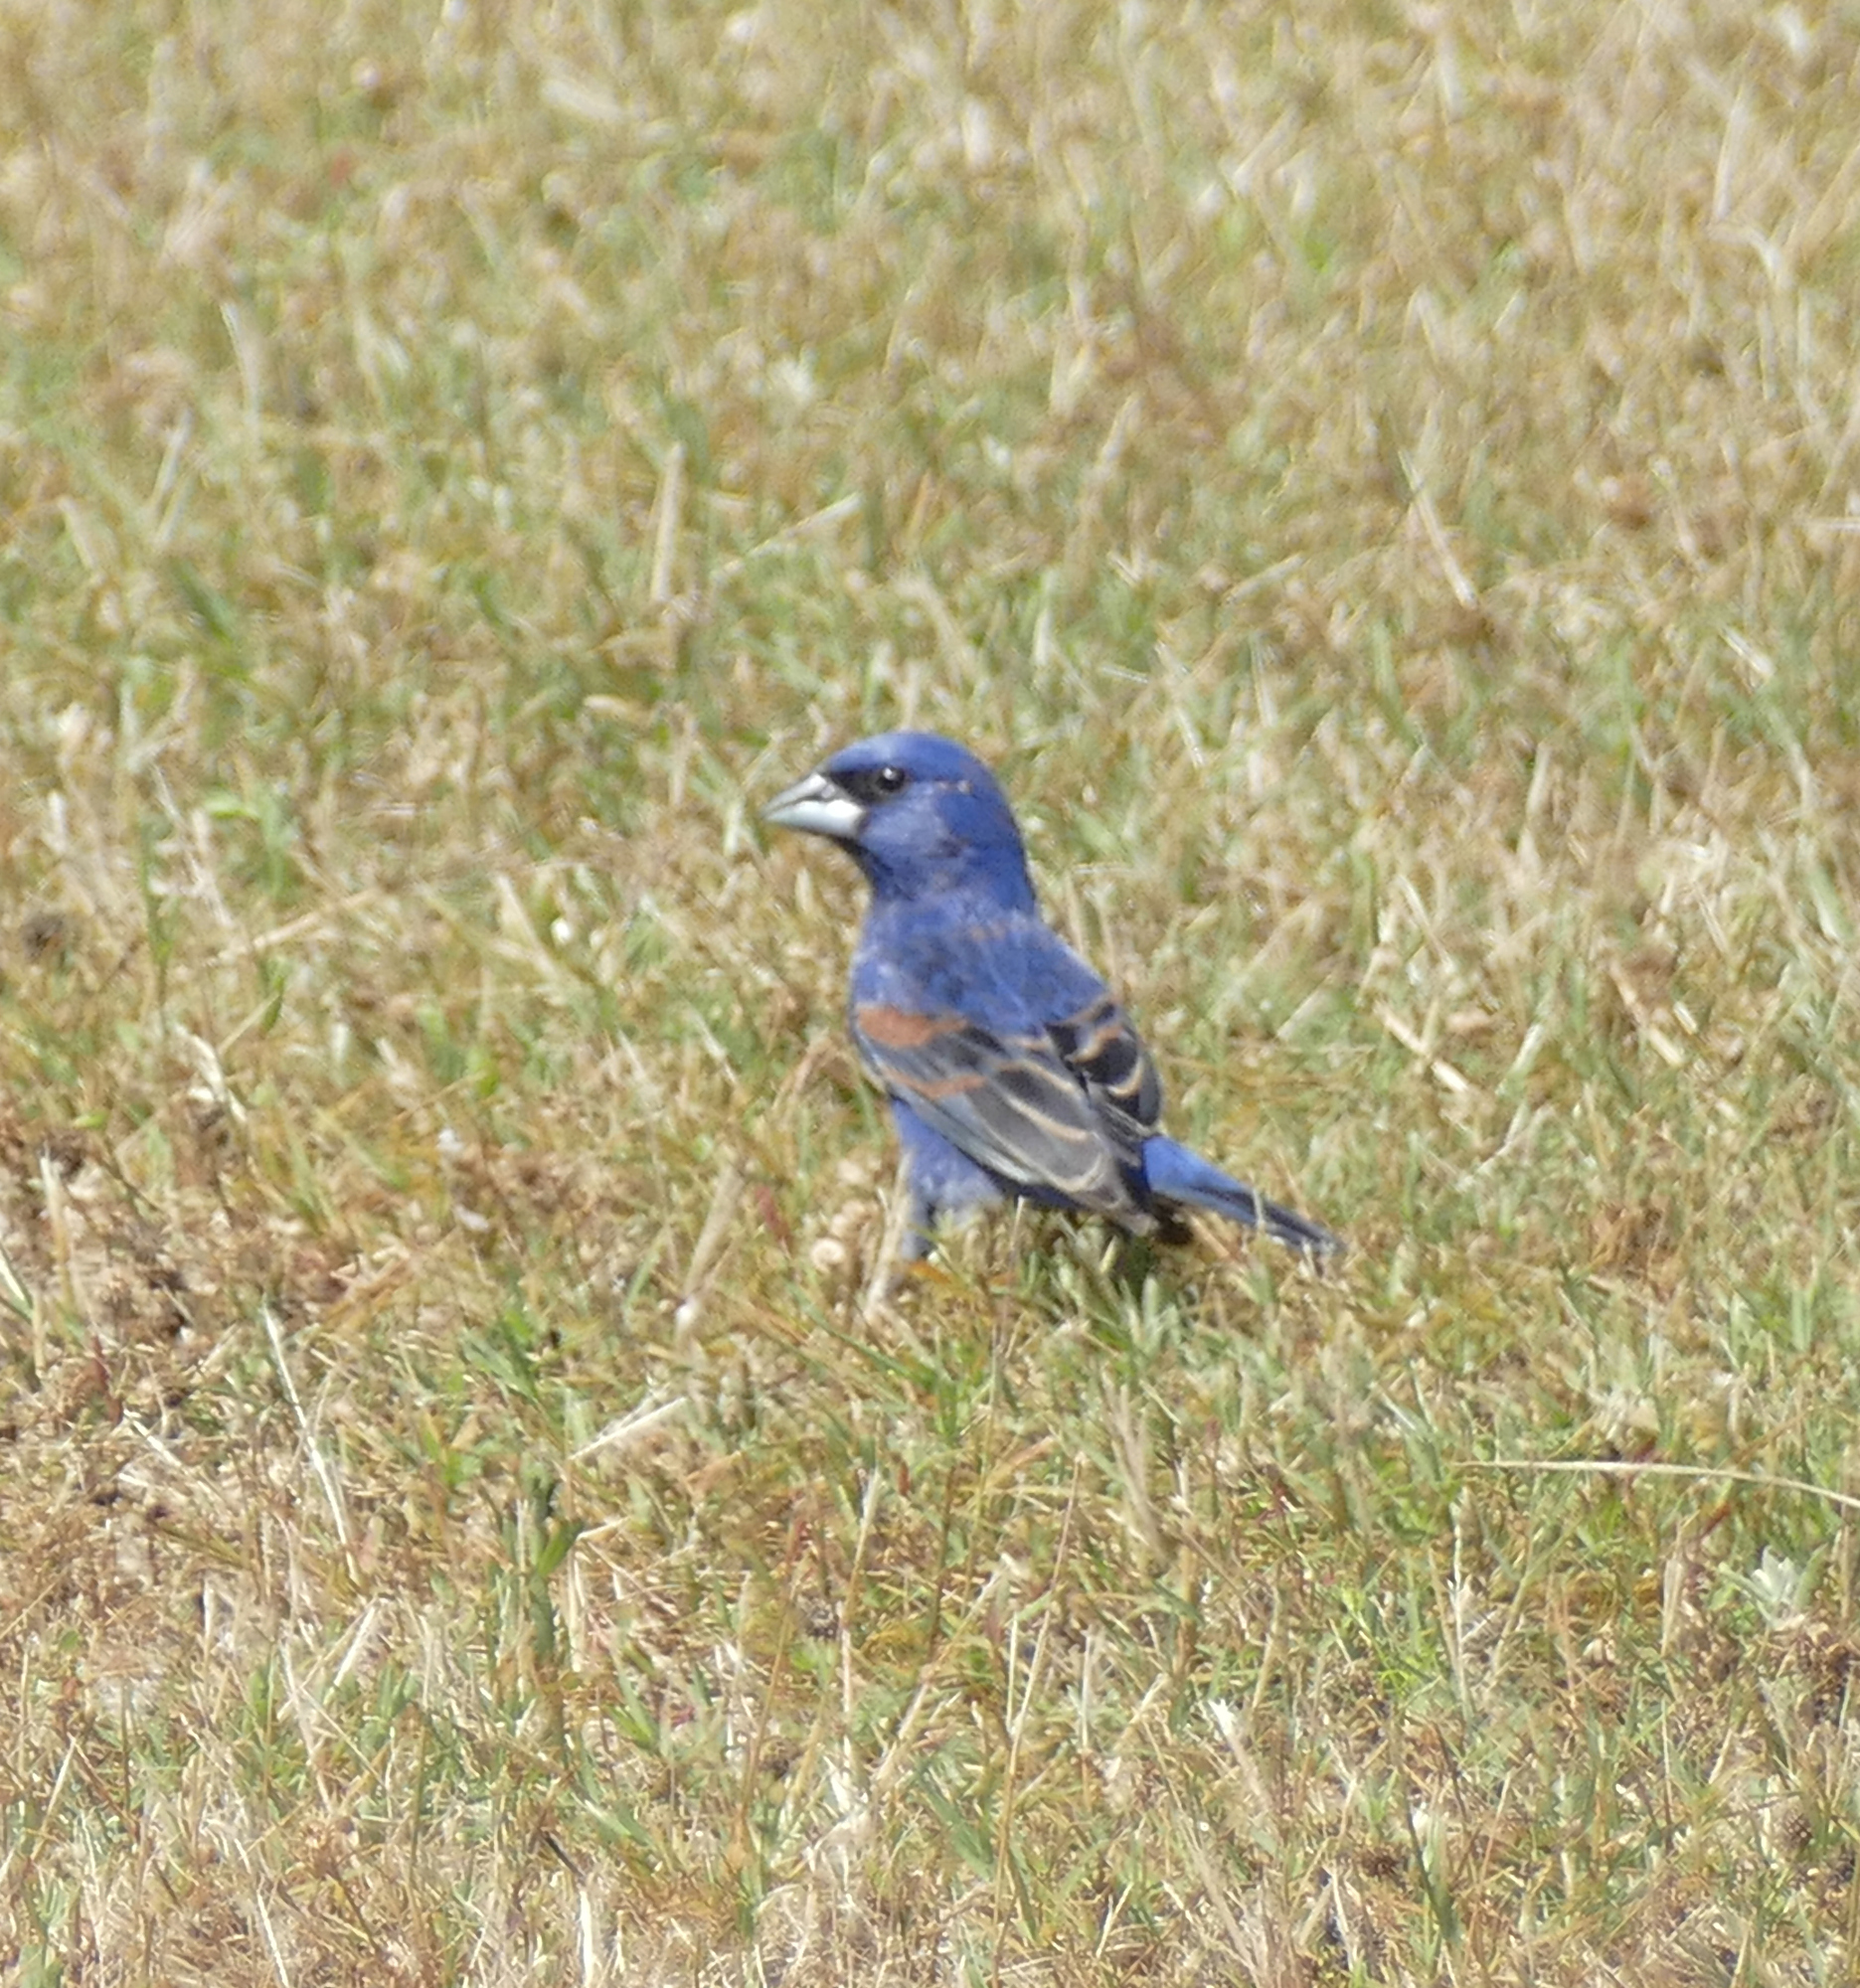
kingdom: Animalia
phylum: Chordata
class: Aves
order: Passeriformes
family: Cardinalidae
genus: Passerina
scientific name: Passerina caerulea
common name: Blue grosbeak
